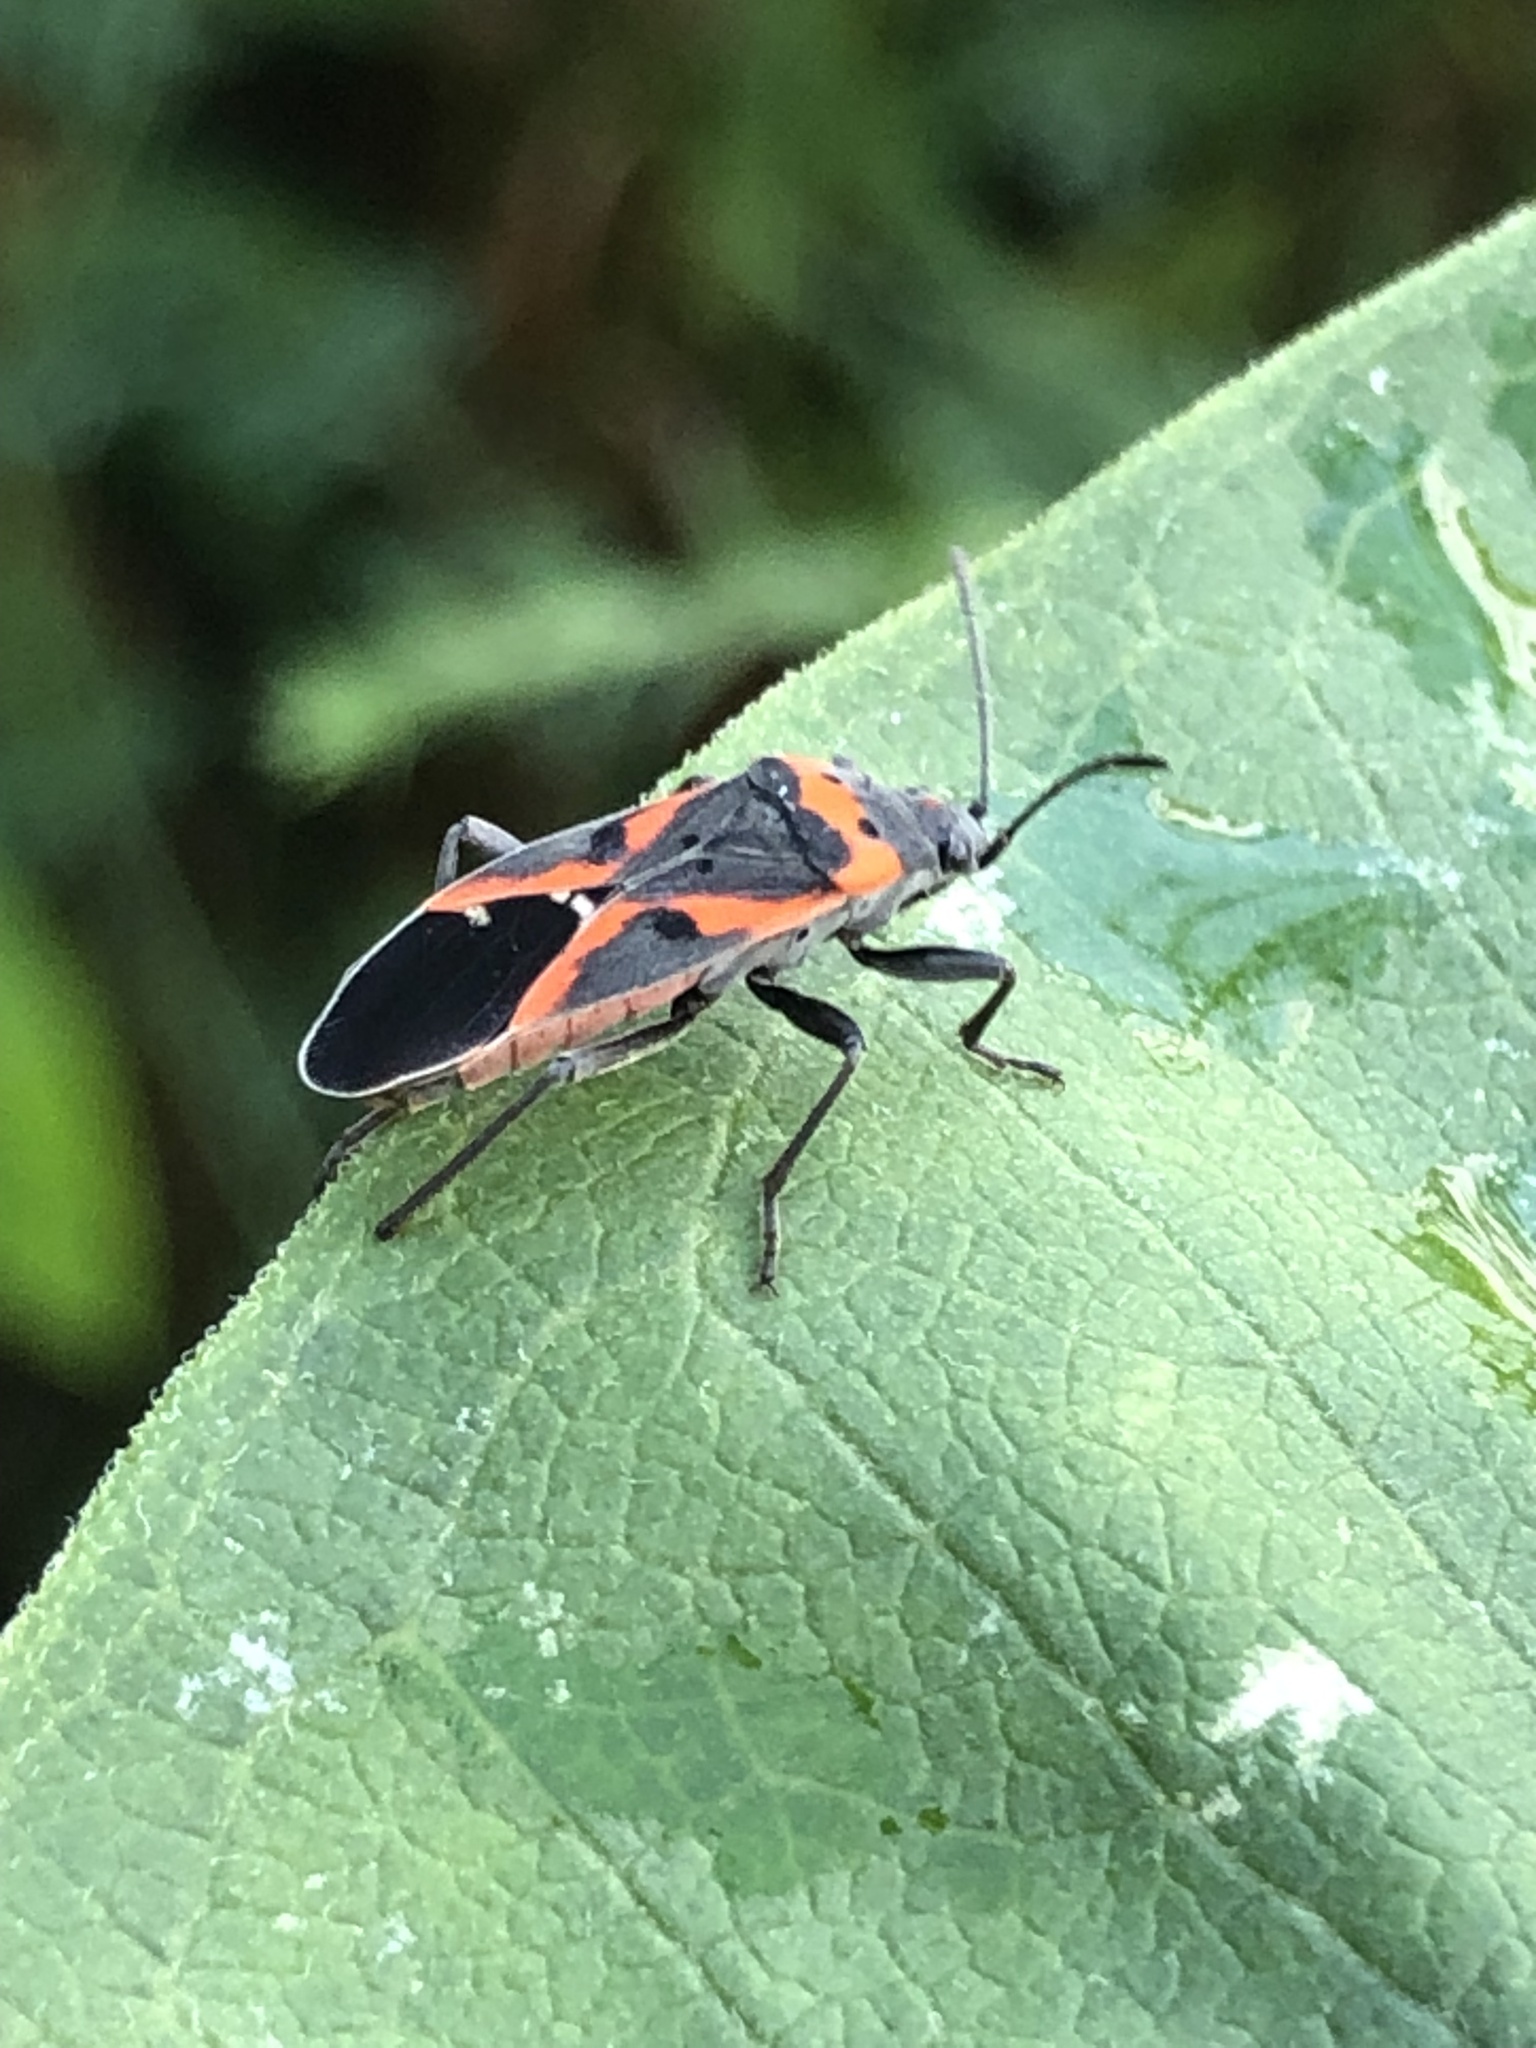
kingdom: Animalia
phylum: Arthropoda
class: Insecta
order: Hemiptera
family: Lygaeidae
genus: Lygaeus
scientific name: Lygaeus kalmii
